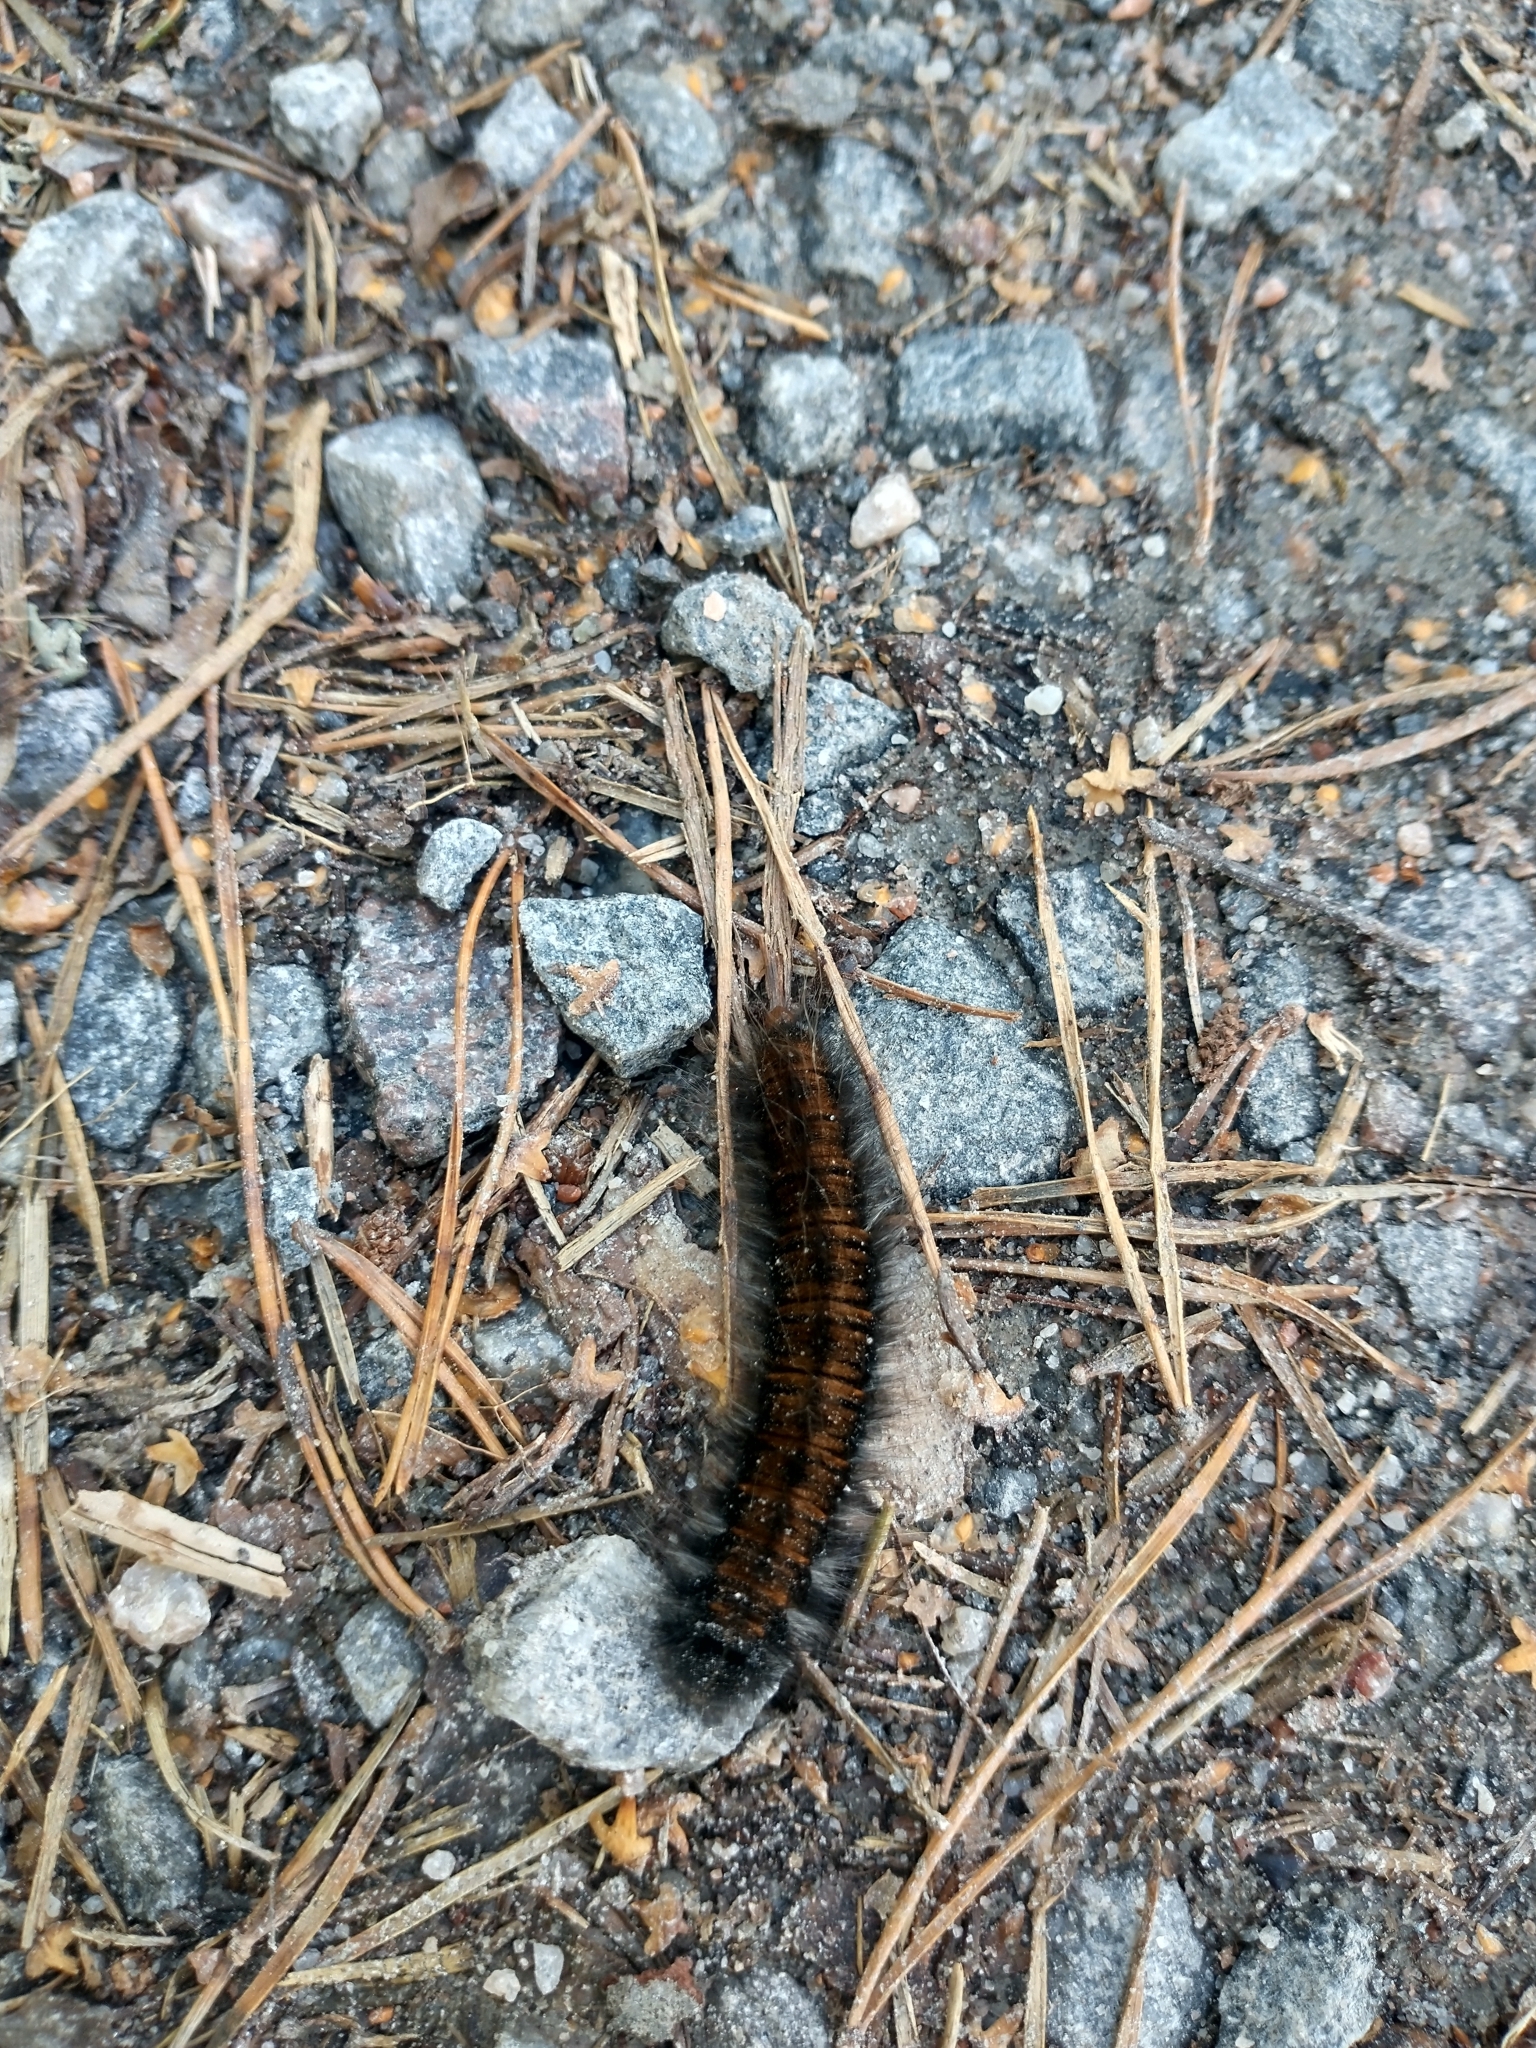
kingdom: Animalia
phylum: Arthropoda
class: Insecta
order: Lepidoptera
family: Lasiocampidae
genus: Macrothylacia
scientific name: Macrothylacia rubi
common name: Fox moth
